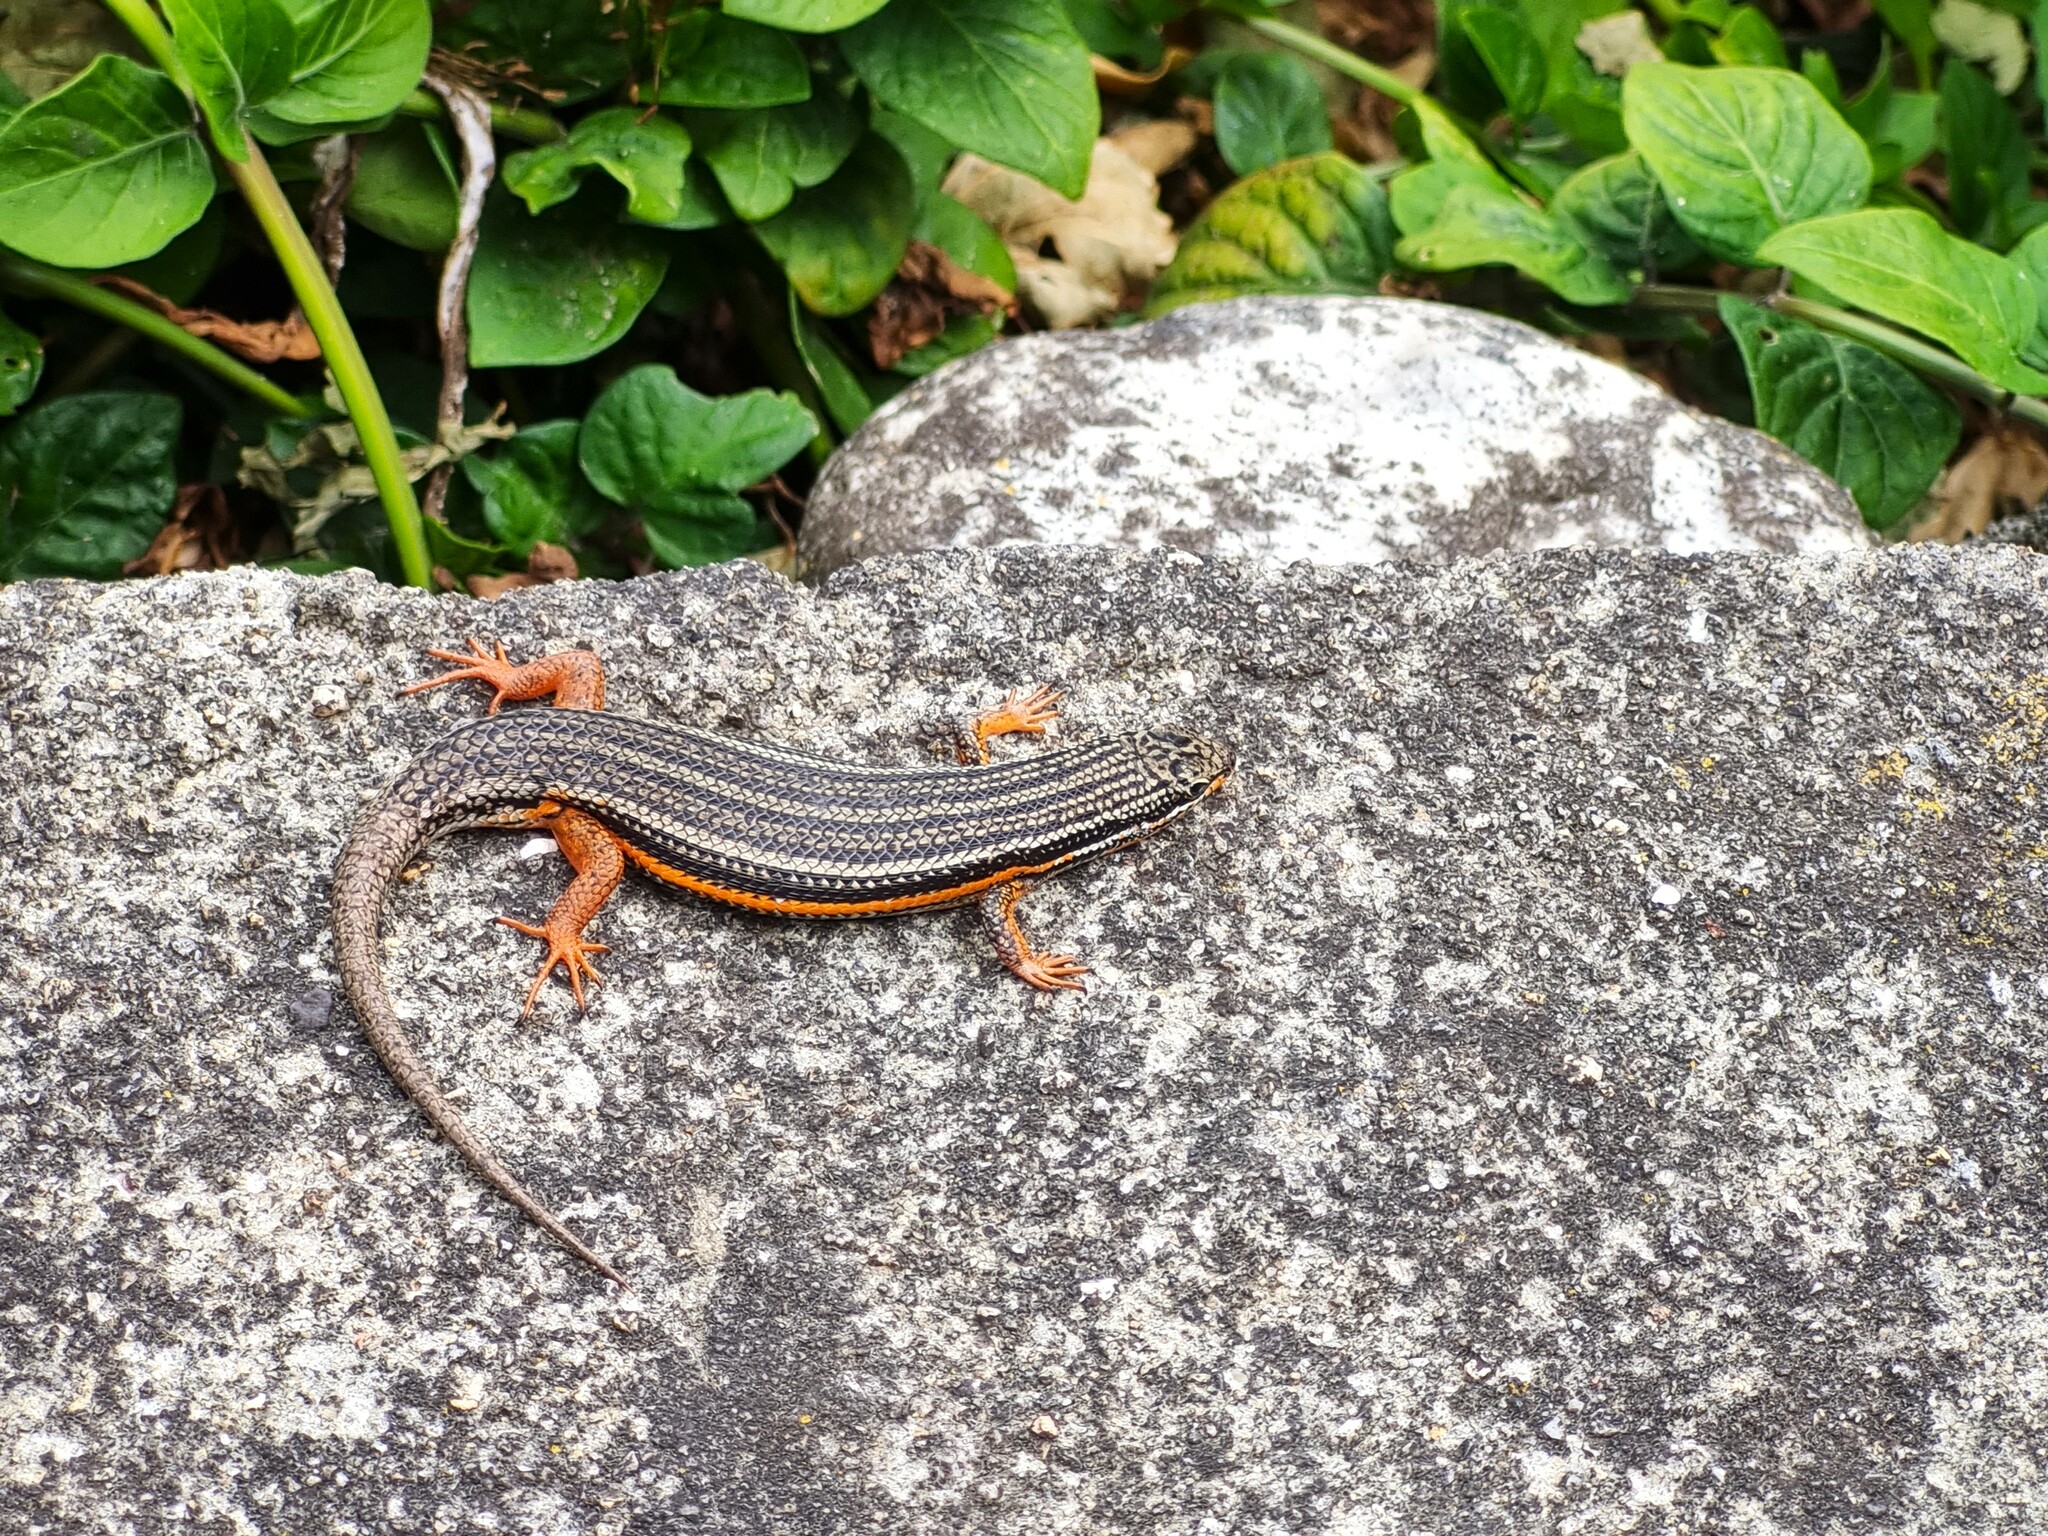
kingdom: Animalia
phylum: Chordata
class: Squamata
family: Scincidae
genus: Trachylepis
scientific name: Trachylepis homalocephala
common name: Red-sided skink
